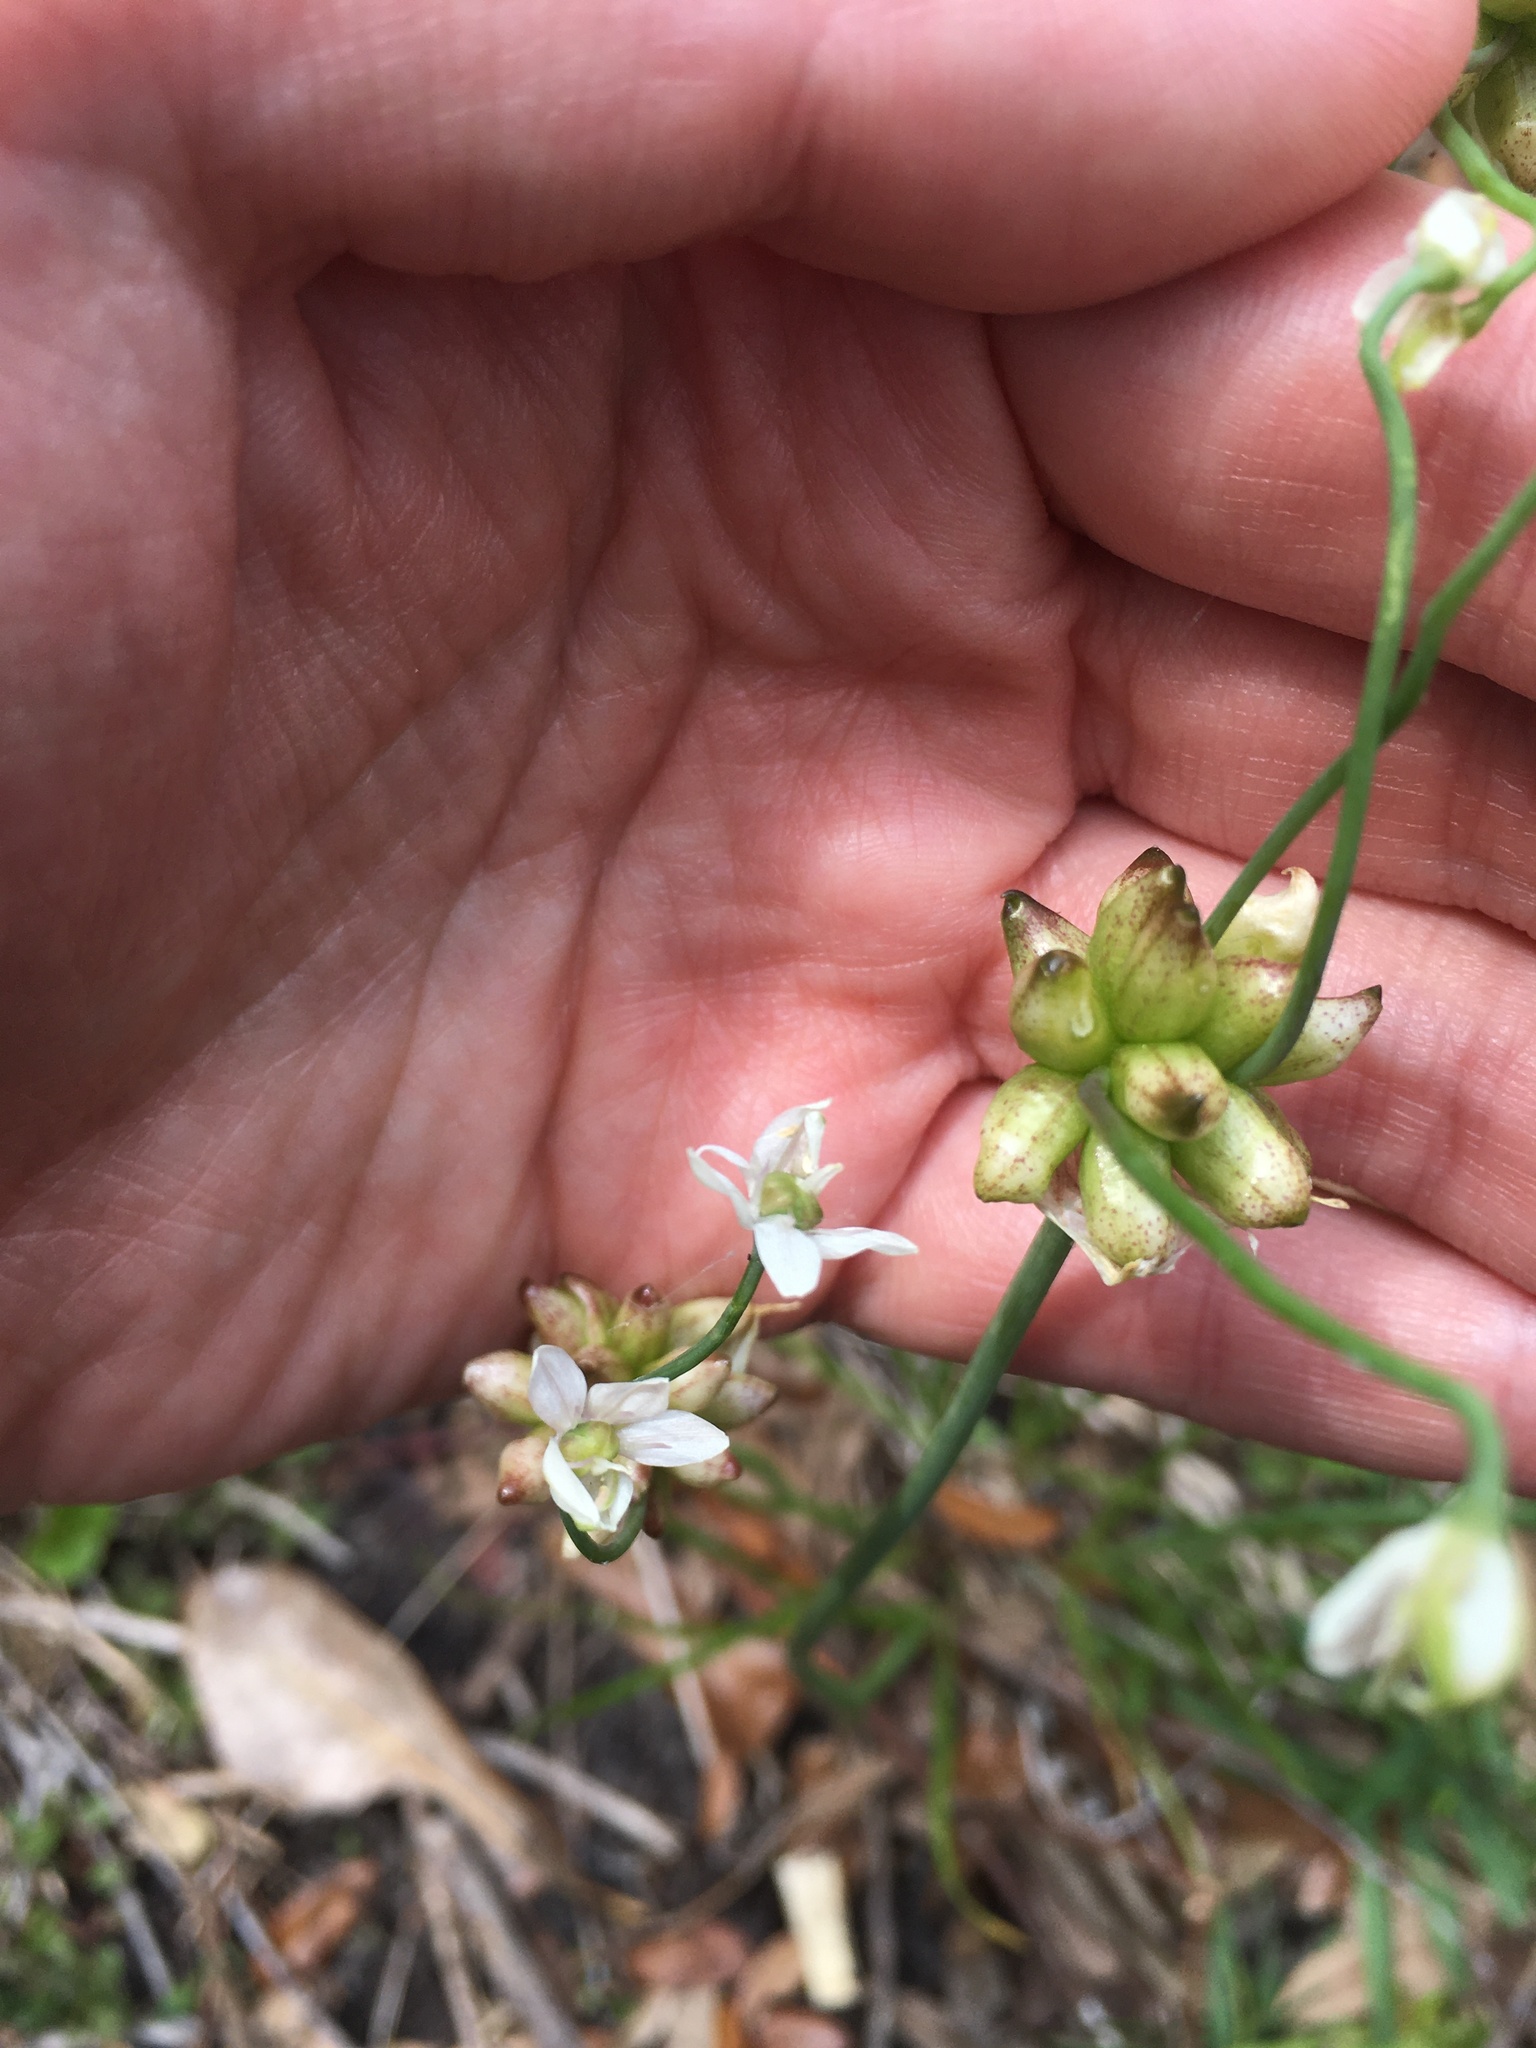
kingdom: Plantae
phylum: Tracheophyta
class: Liliopsida
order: Asparagales
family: Amaryllidaceae
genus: Allium
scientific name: Allium canadense
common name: Meadow garlic
